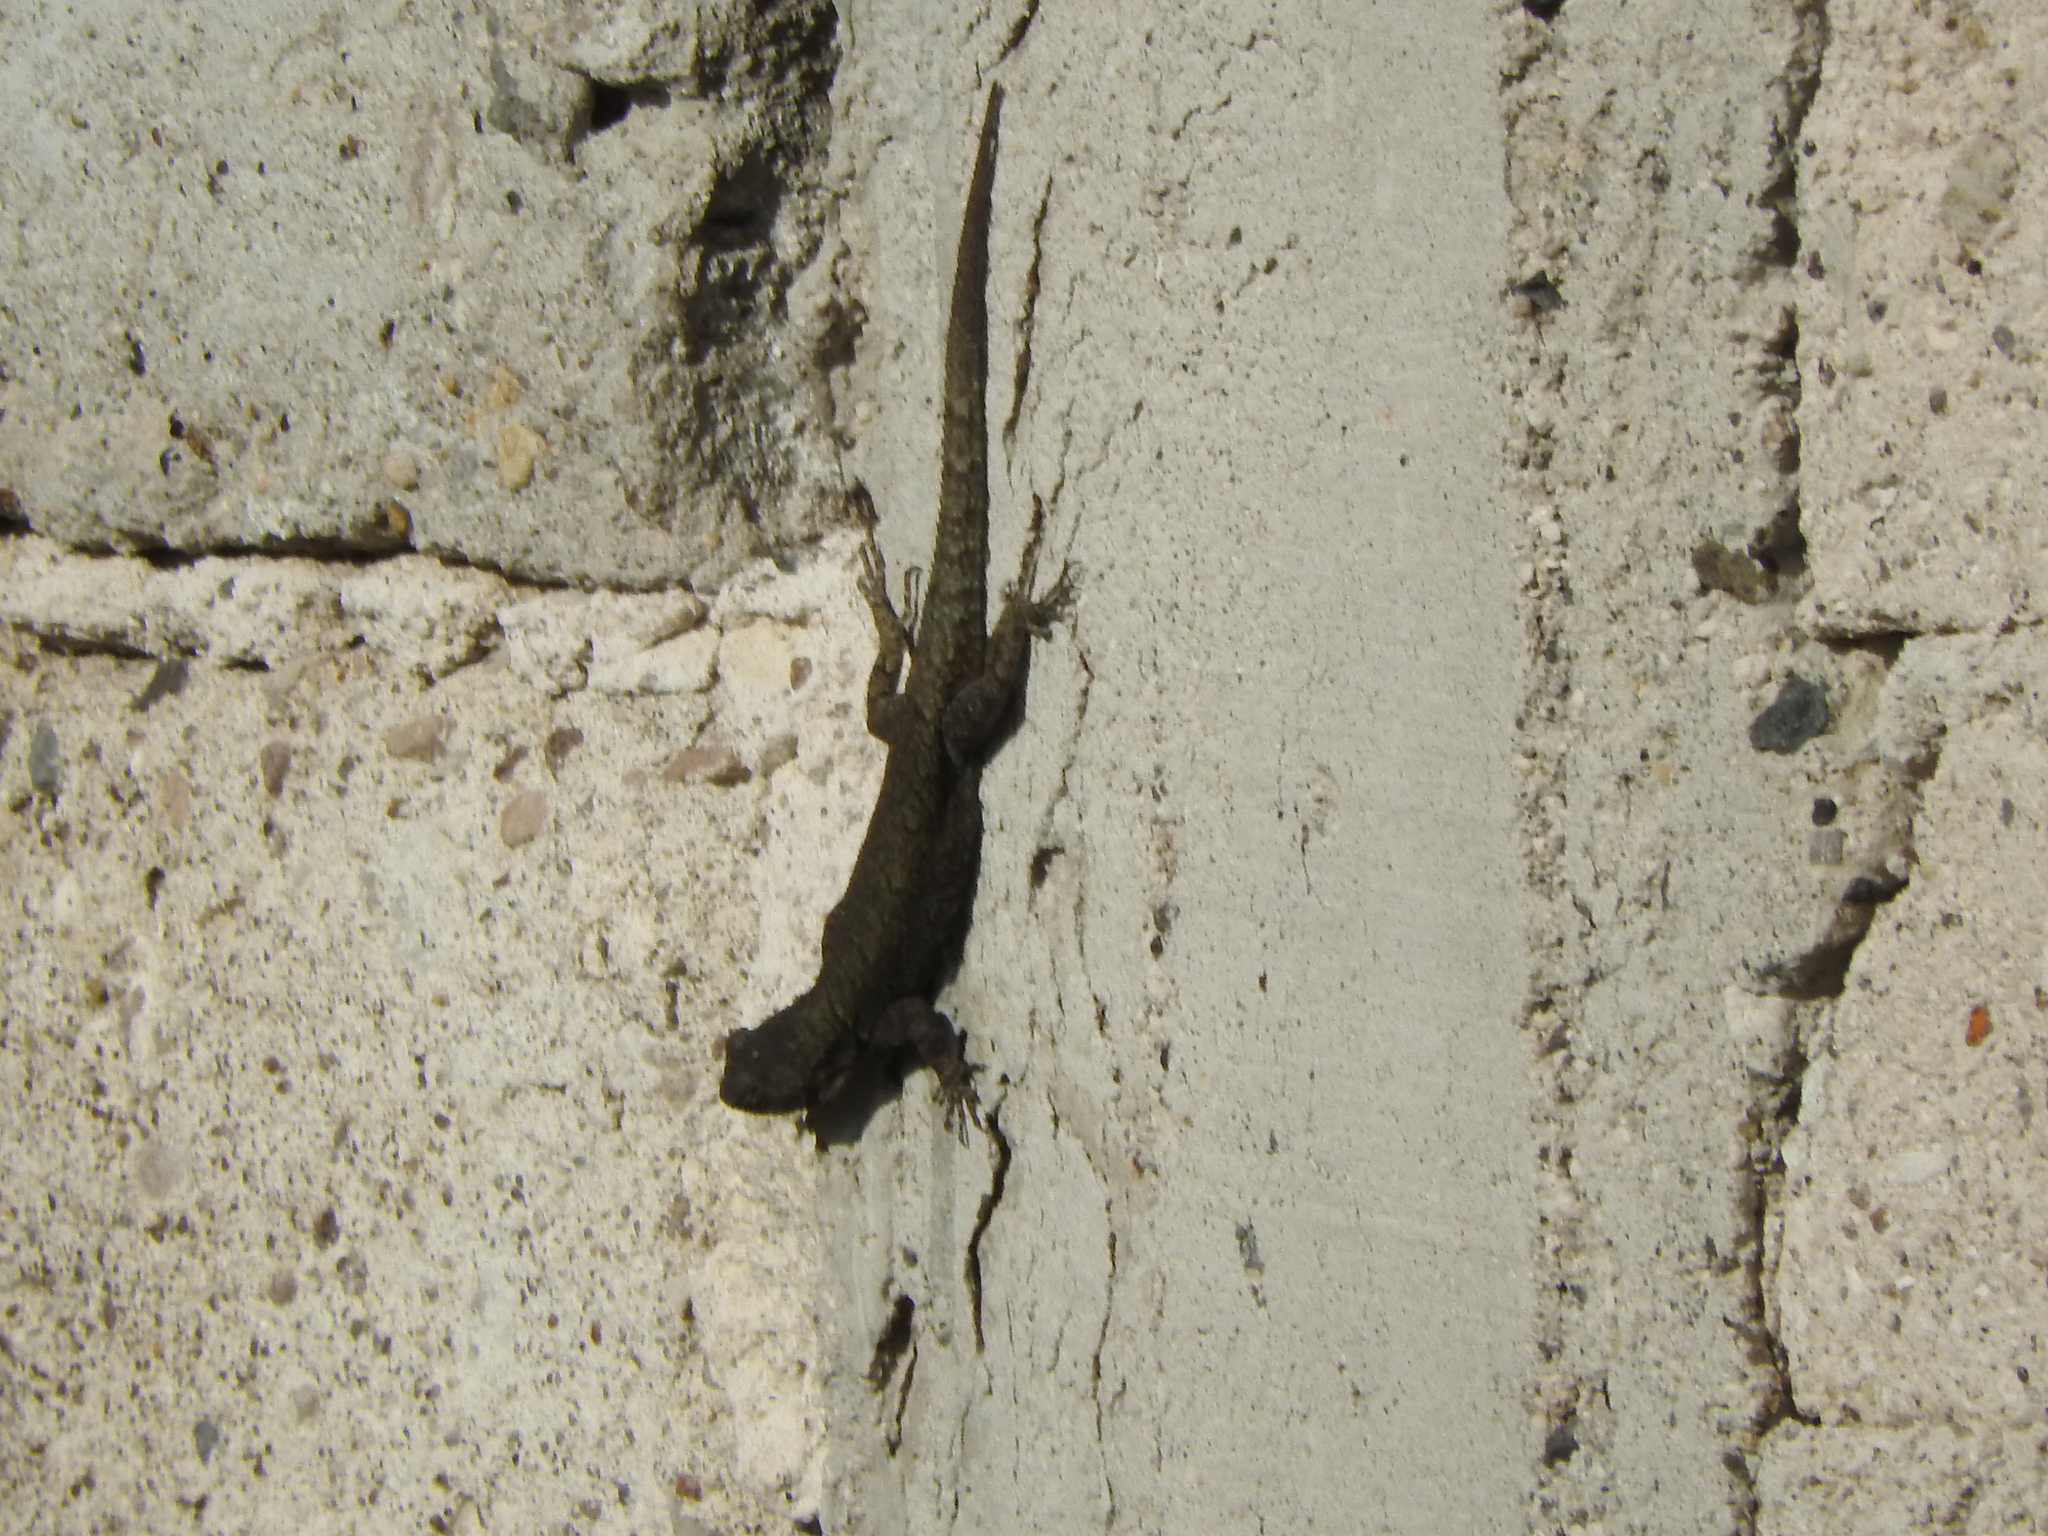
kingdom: Animalia
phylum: Chordata
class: Squamata
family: Phrynosomatidae
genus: Sceloporus
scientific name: Sceloporus grammicus
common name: Mesquite lizard
